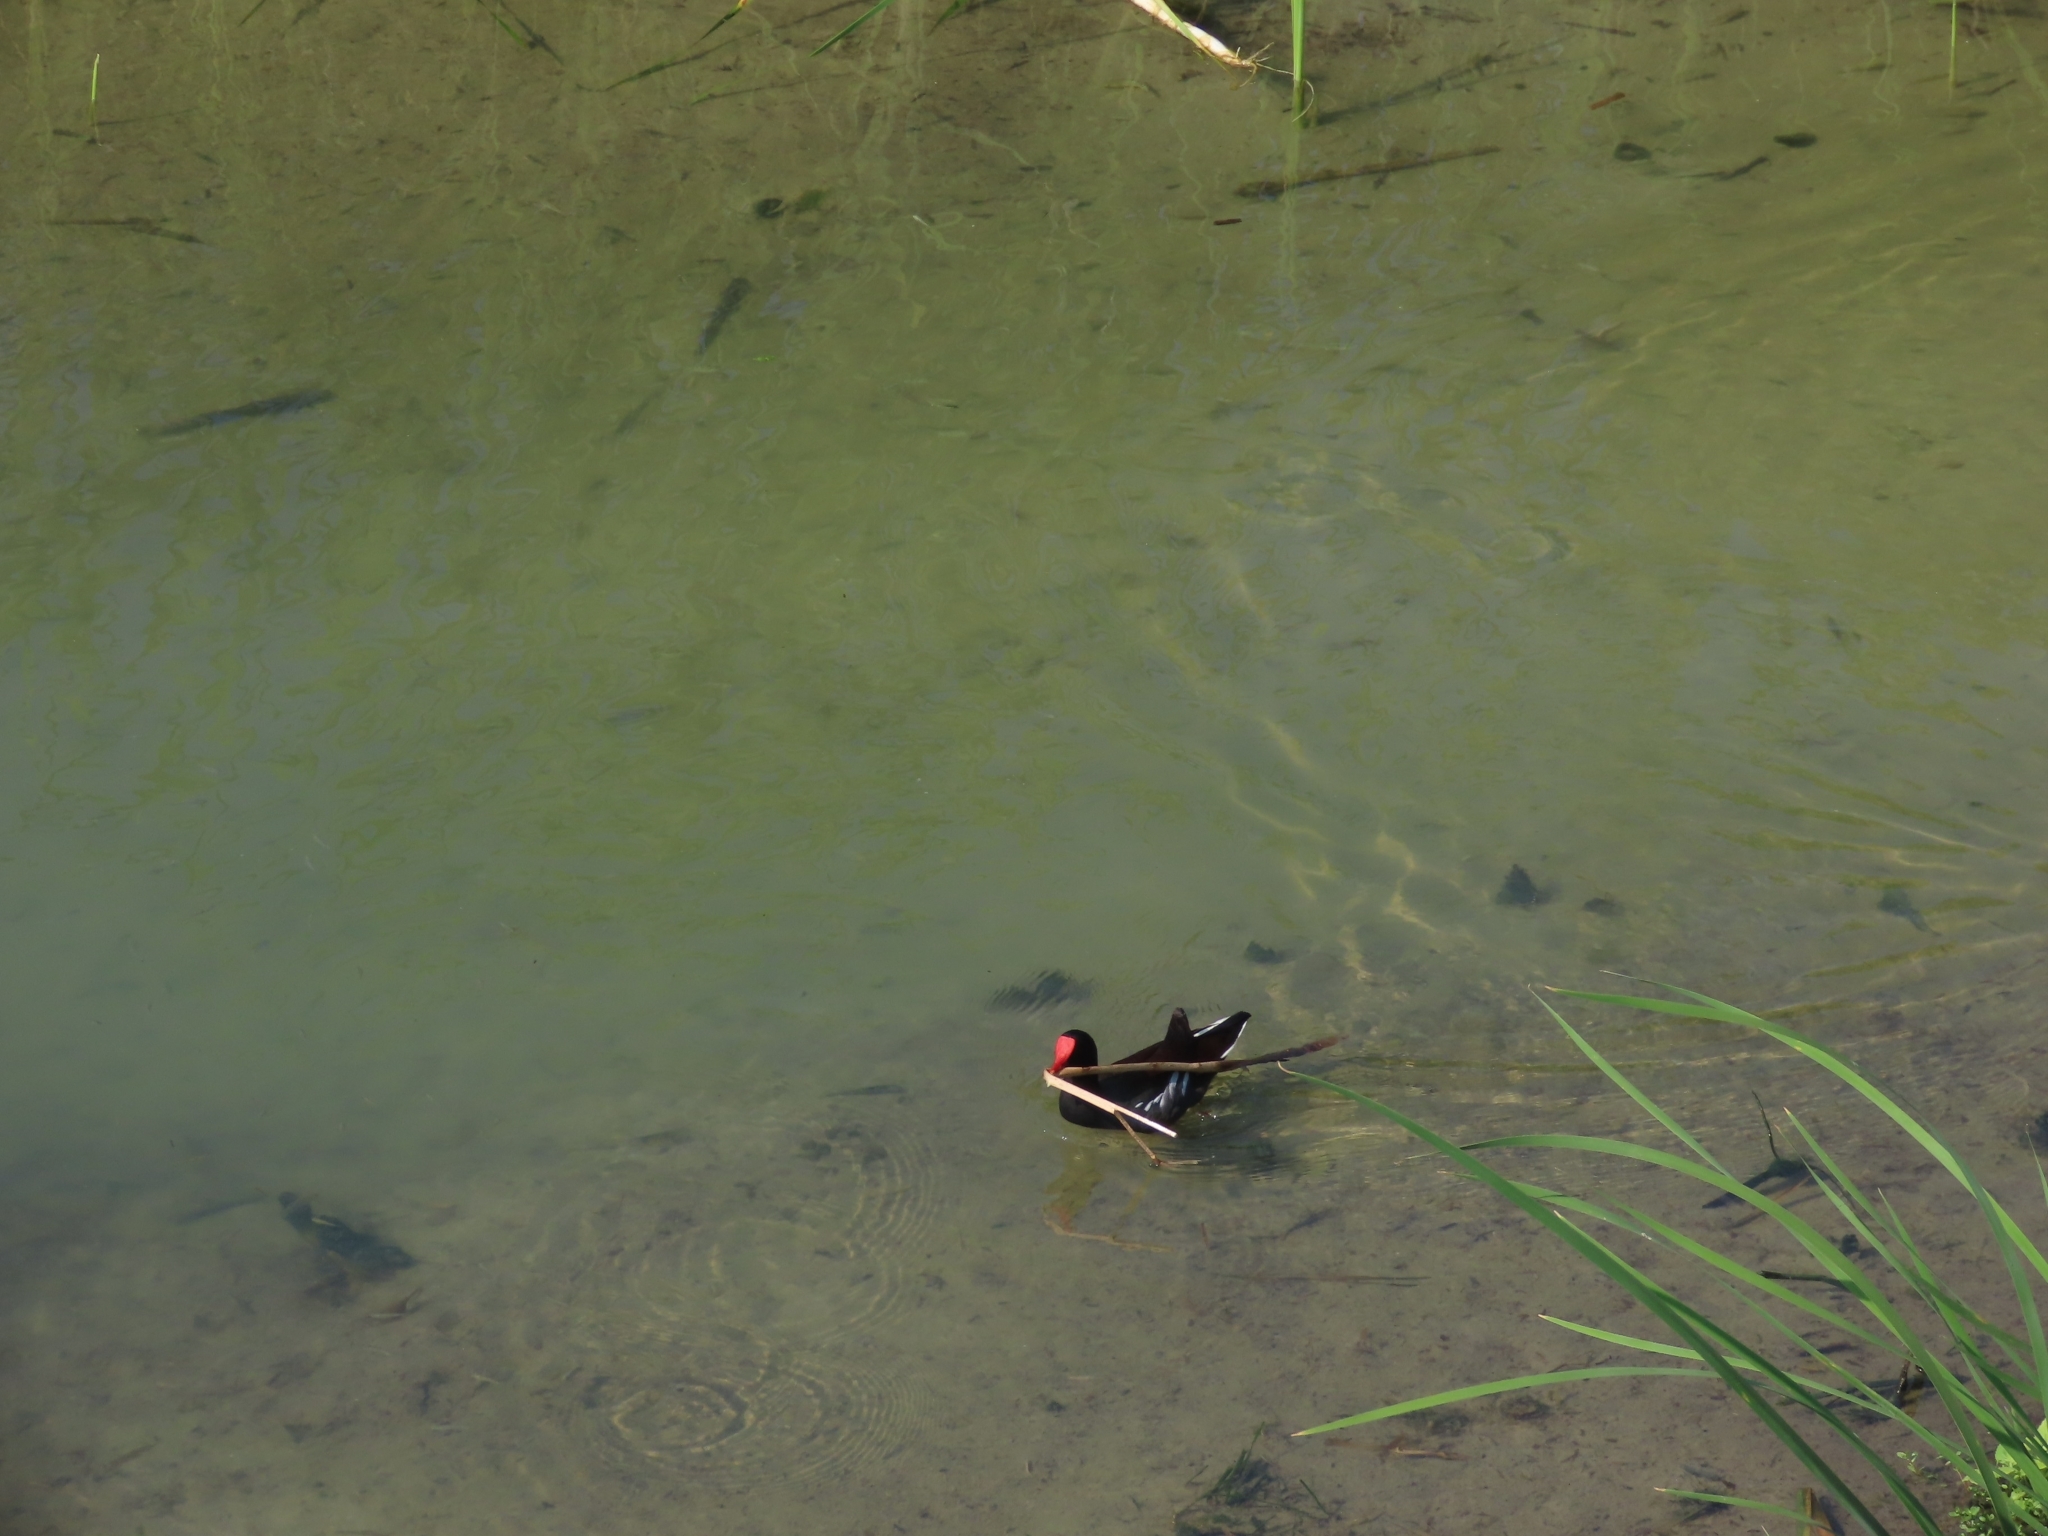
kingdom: Animalia
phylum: Chordata
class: Aves
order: Gruiformes
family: Rallidae
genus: Gallinula
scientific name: Gallinula chloropus
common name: Common moorhen
